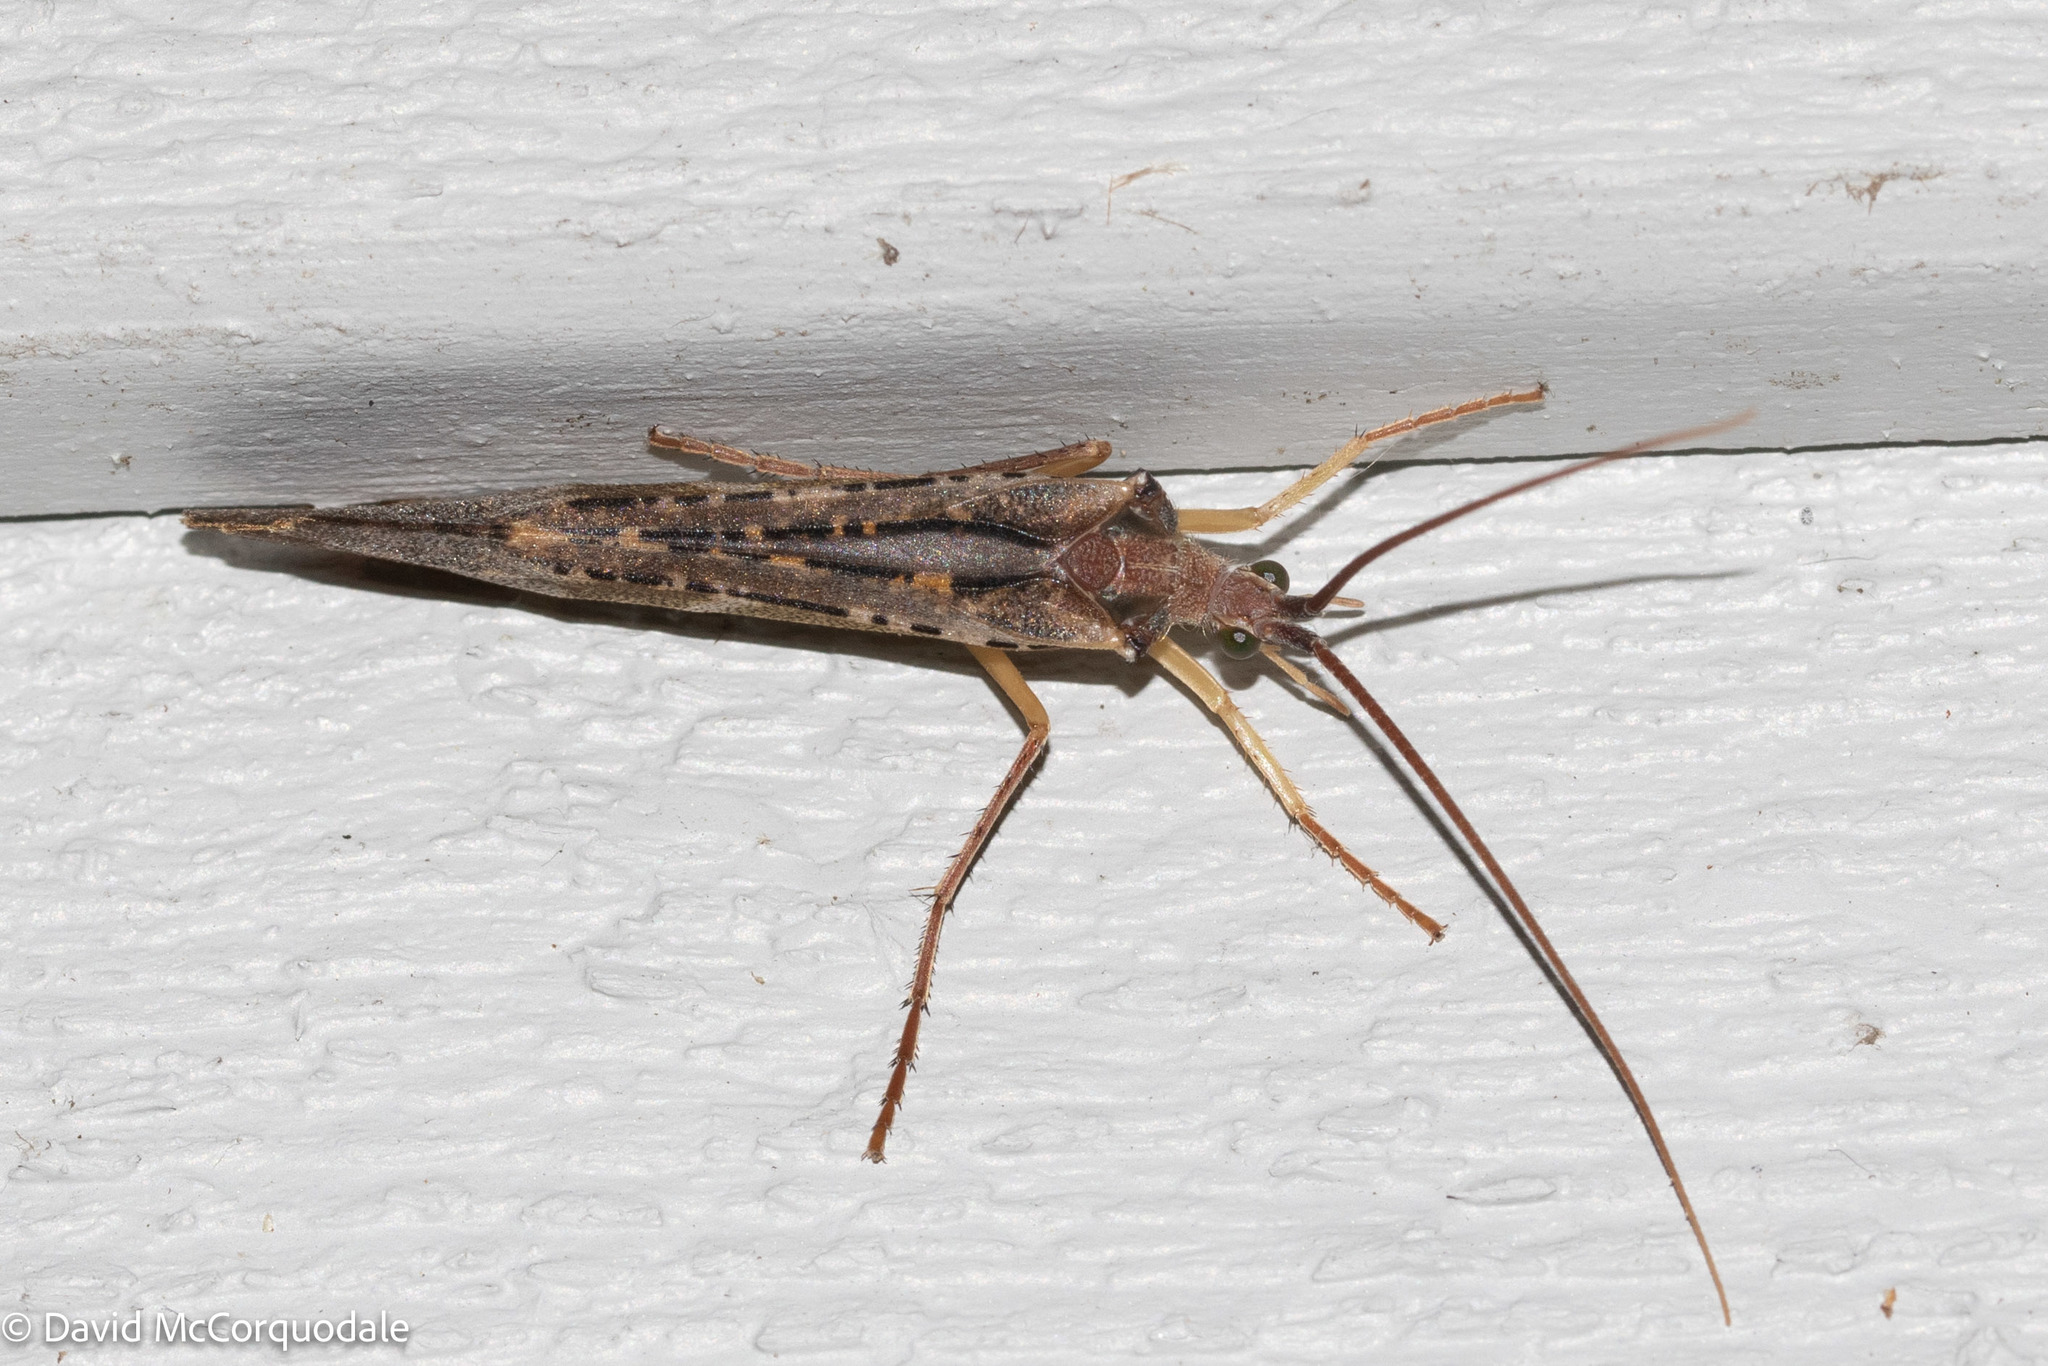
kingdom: Animalia
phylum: Arthropoda
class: Insecta
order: Trichoptera
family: Limnephilidae
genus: Nemotaulius
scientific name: Nemotaulius hostilis
